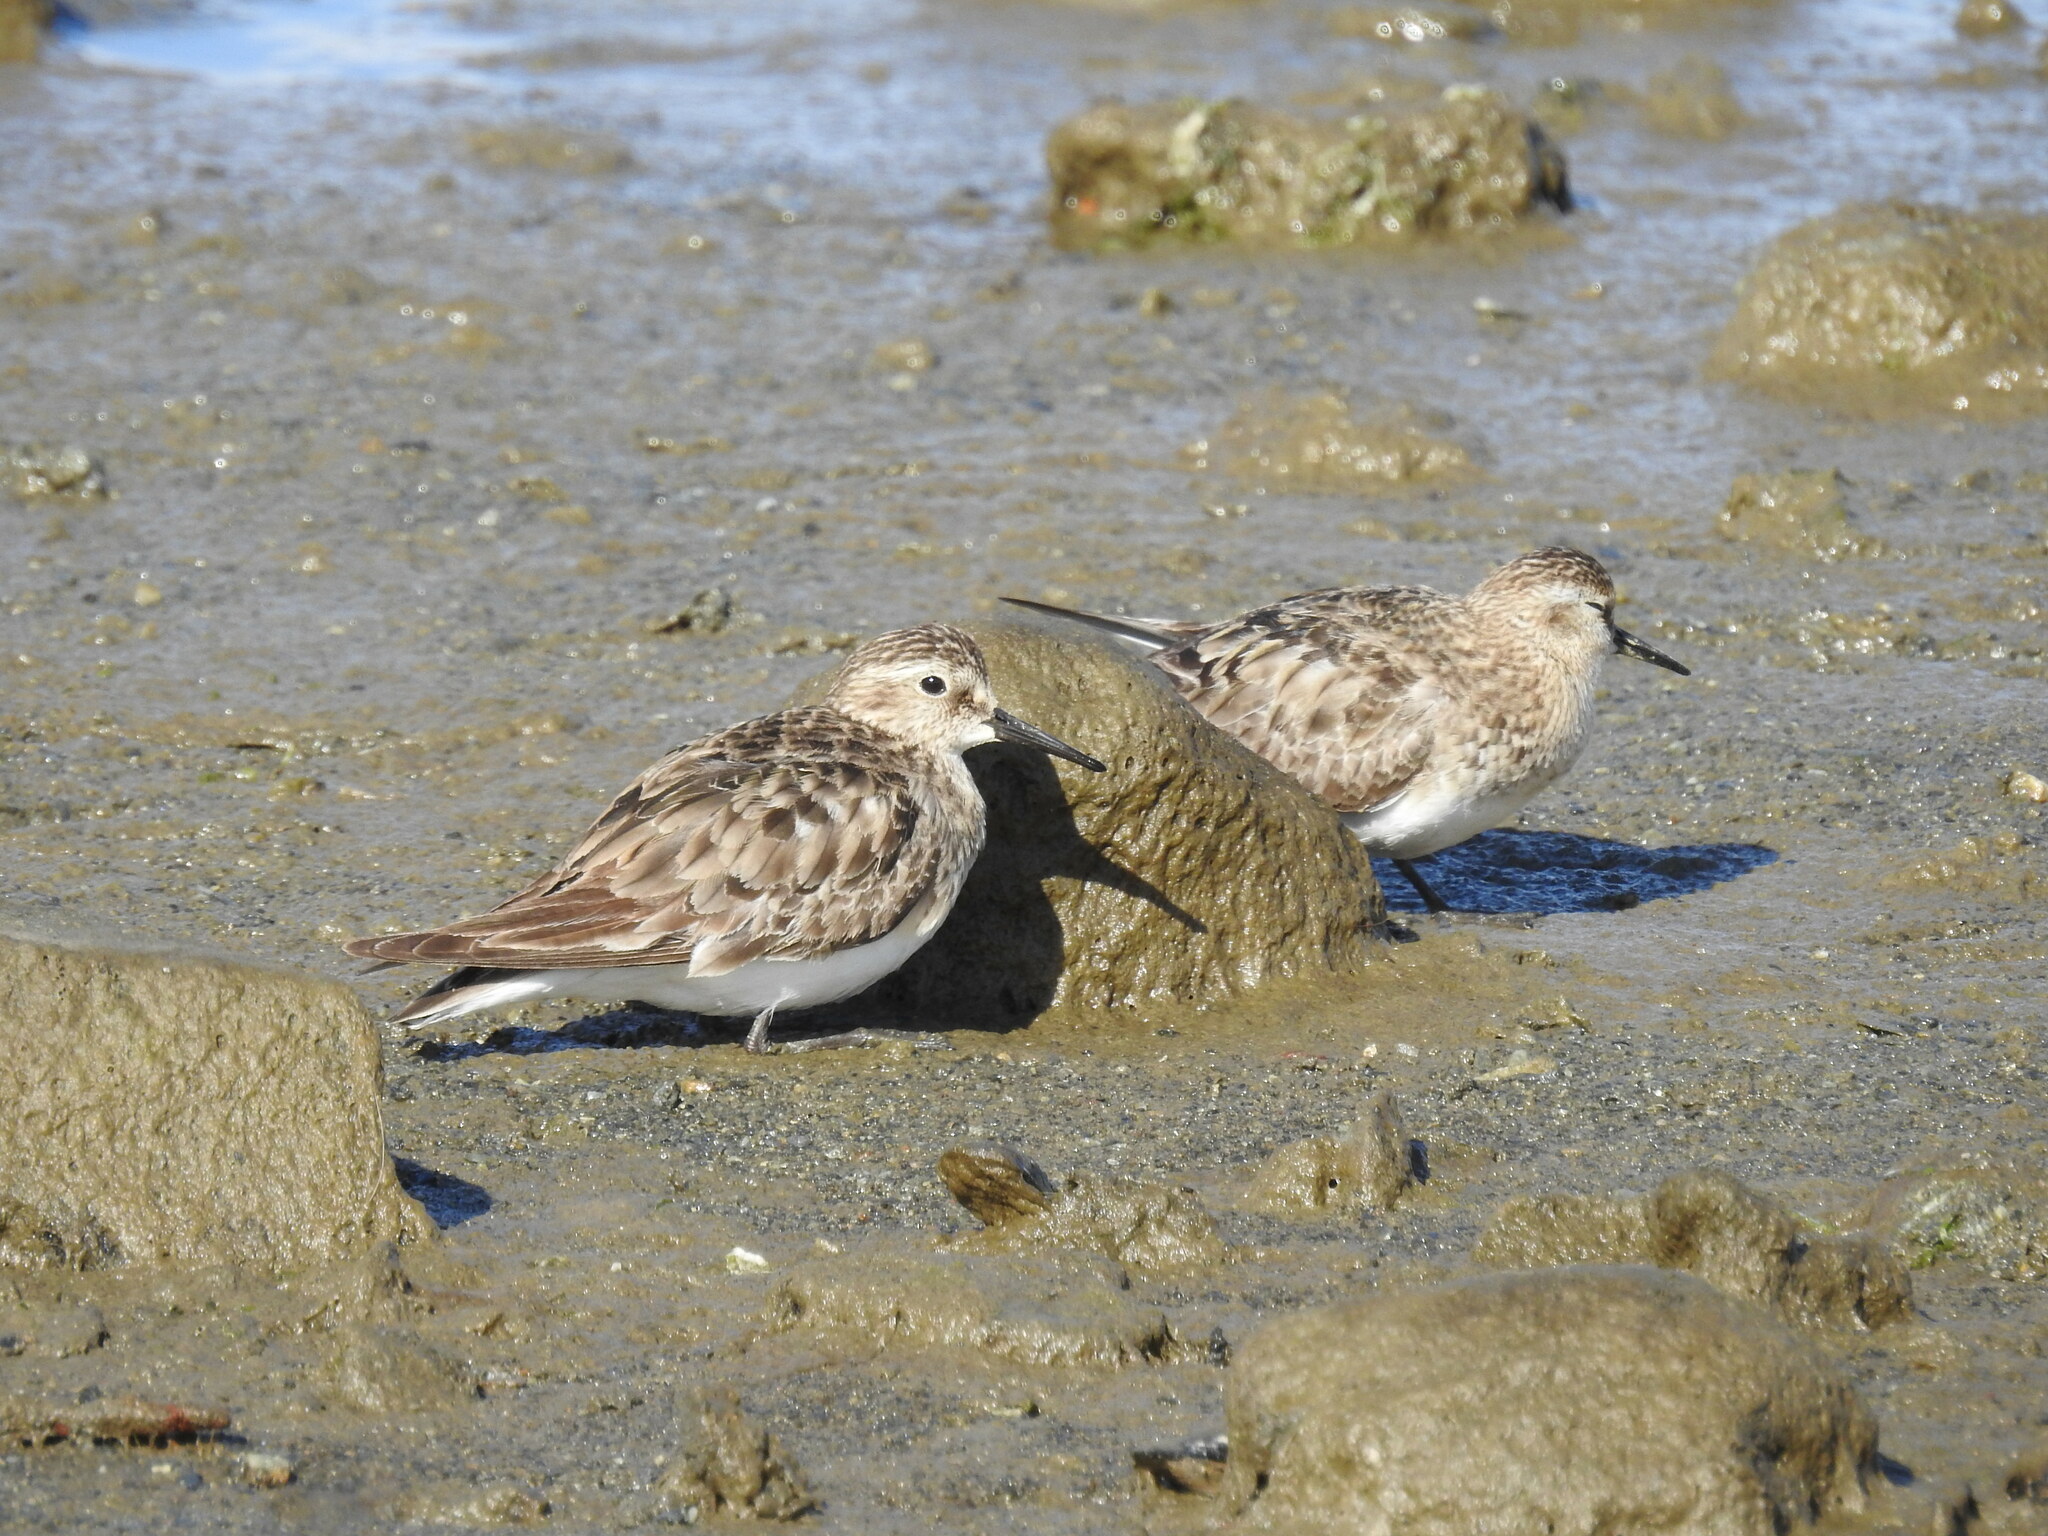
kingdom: Animalia
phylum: Chordata
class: Aves
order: Charadriiformes
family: Scolopacidae
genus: Calidris
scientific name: Calidris bairdii
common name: Baird's sandpiper
